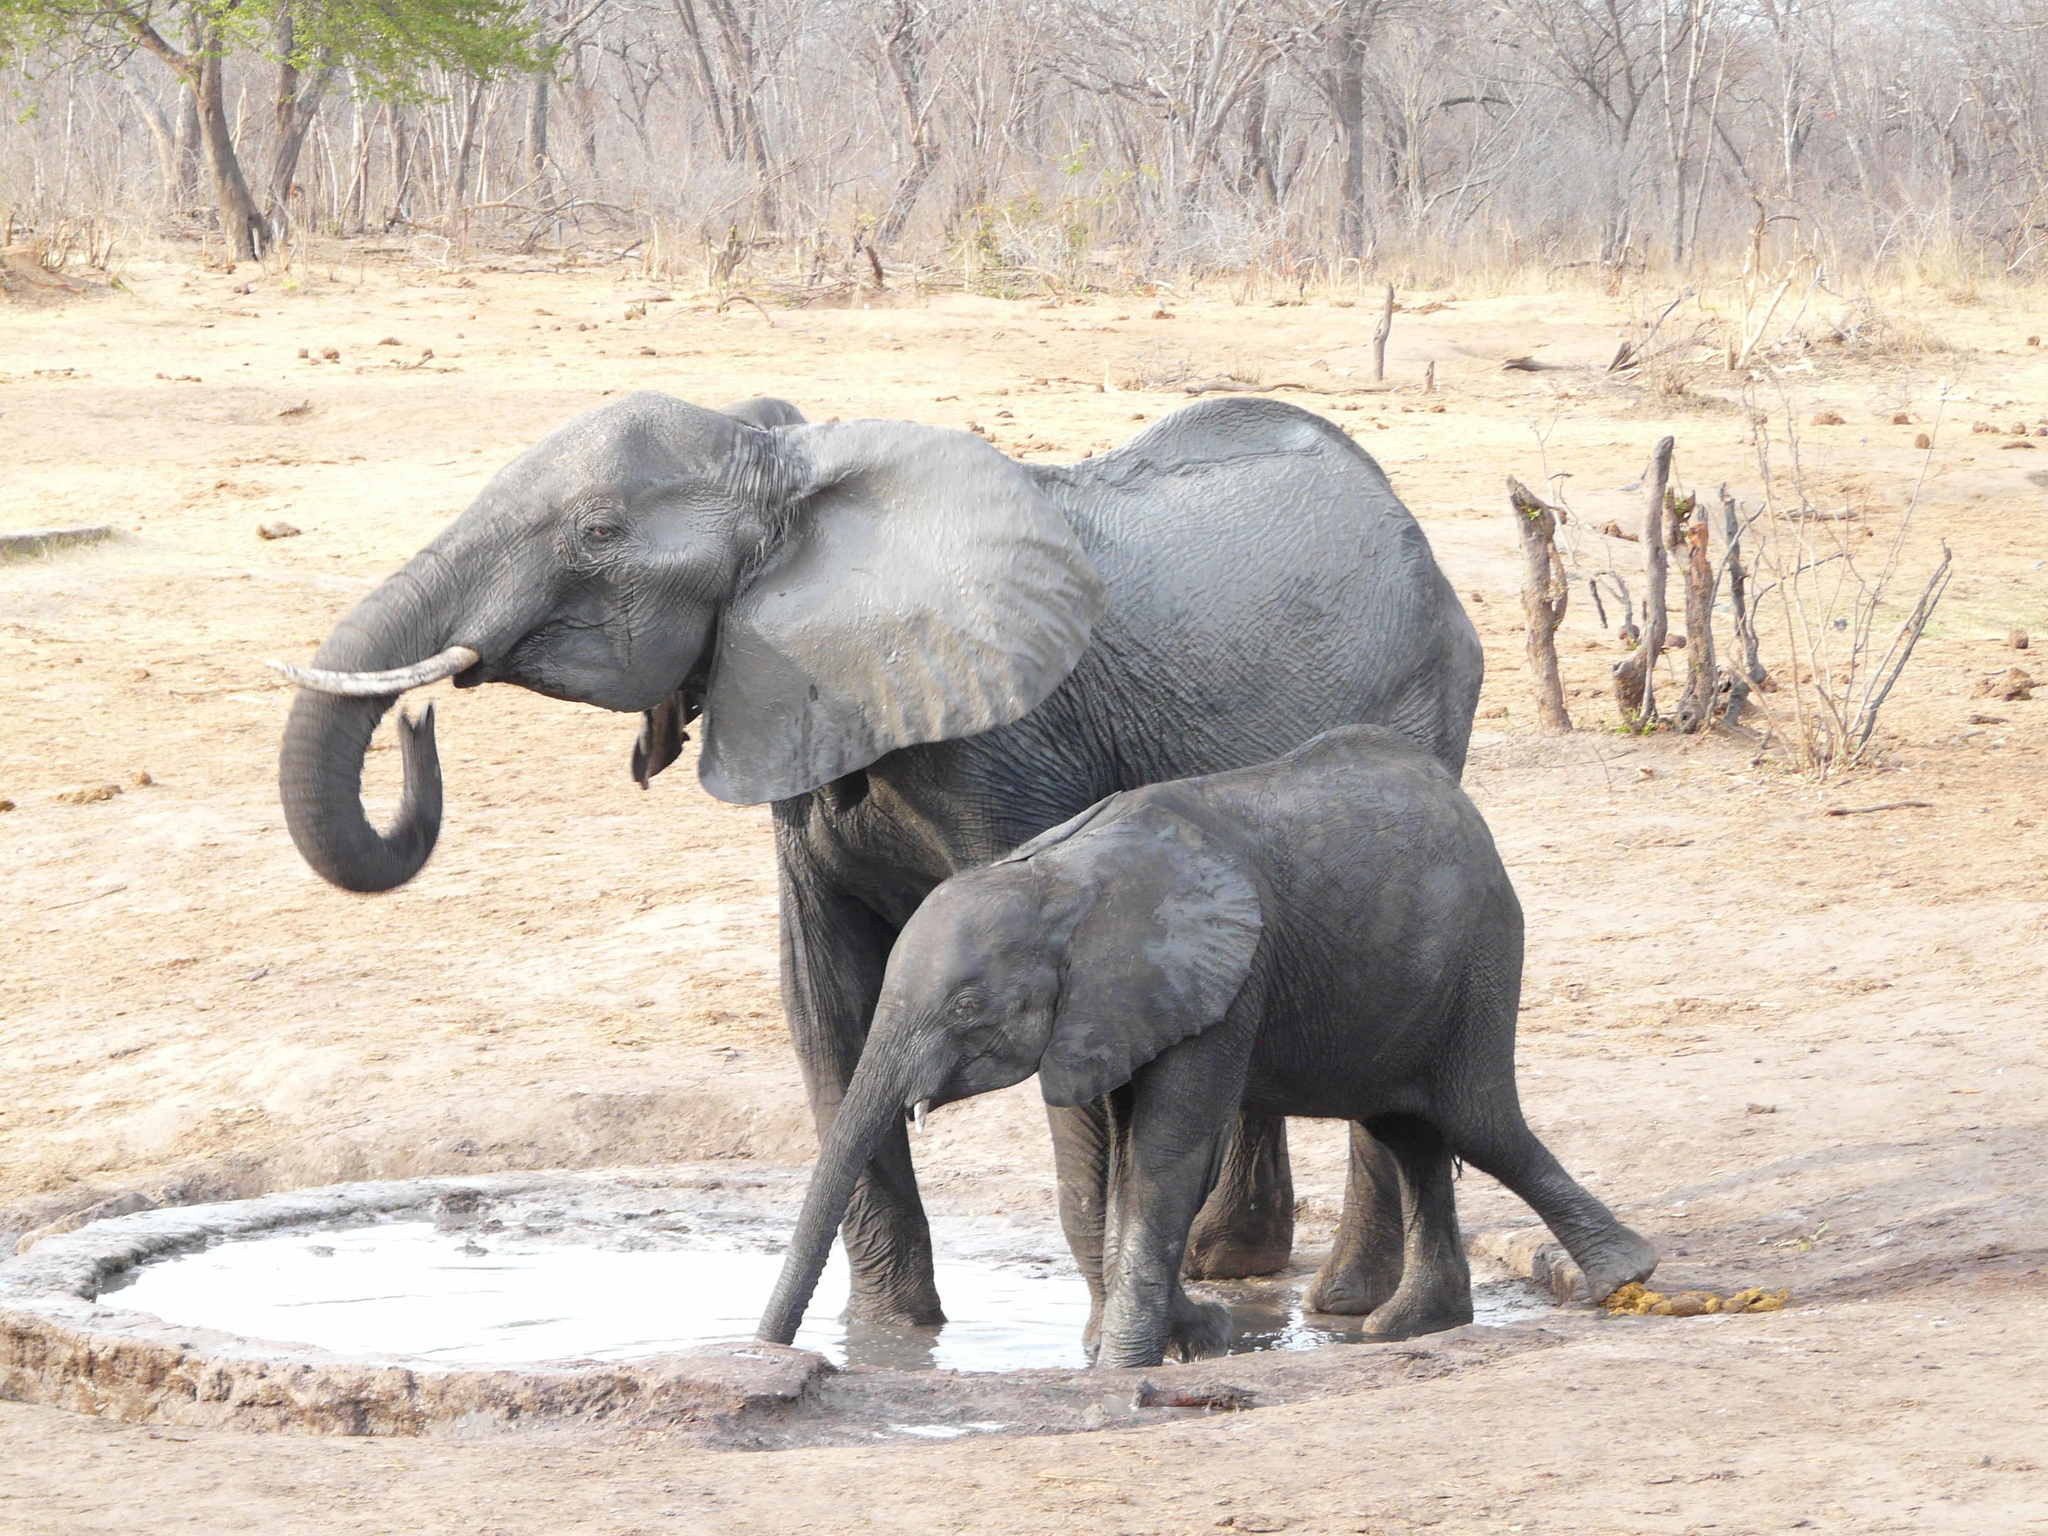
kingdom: Animalia
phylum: Chordata
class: Mammalia
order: Proboscidea
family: Elephantidae
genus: Loxodonta
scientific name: Loxodonta africana
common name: African elephant
